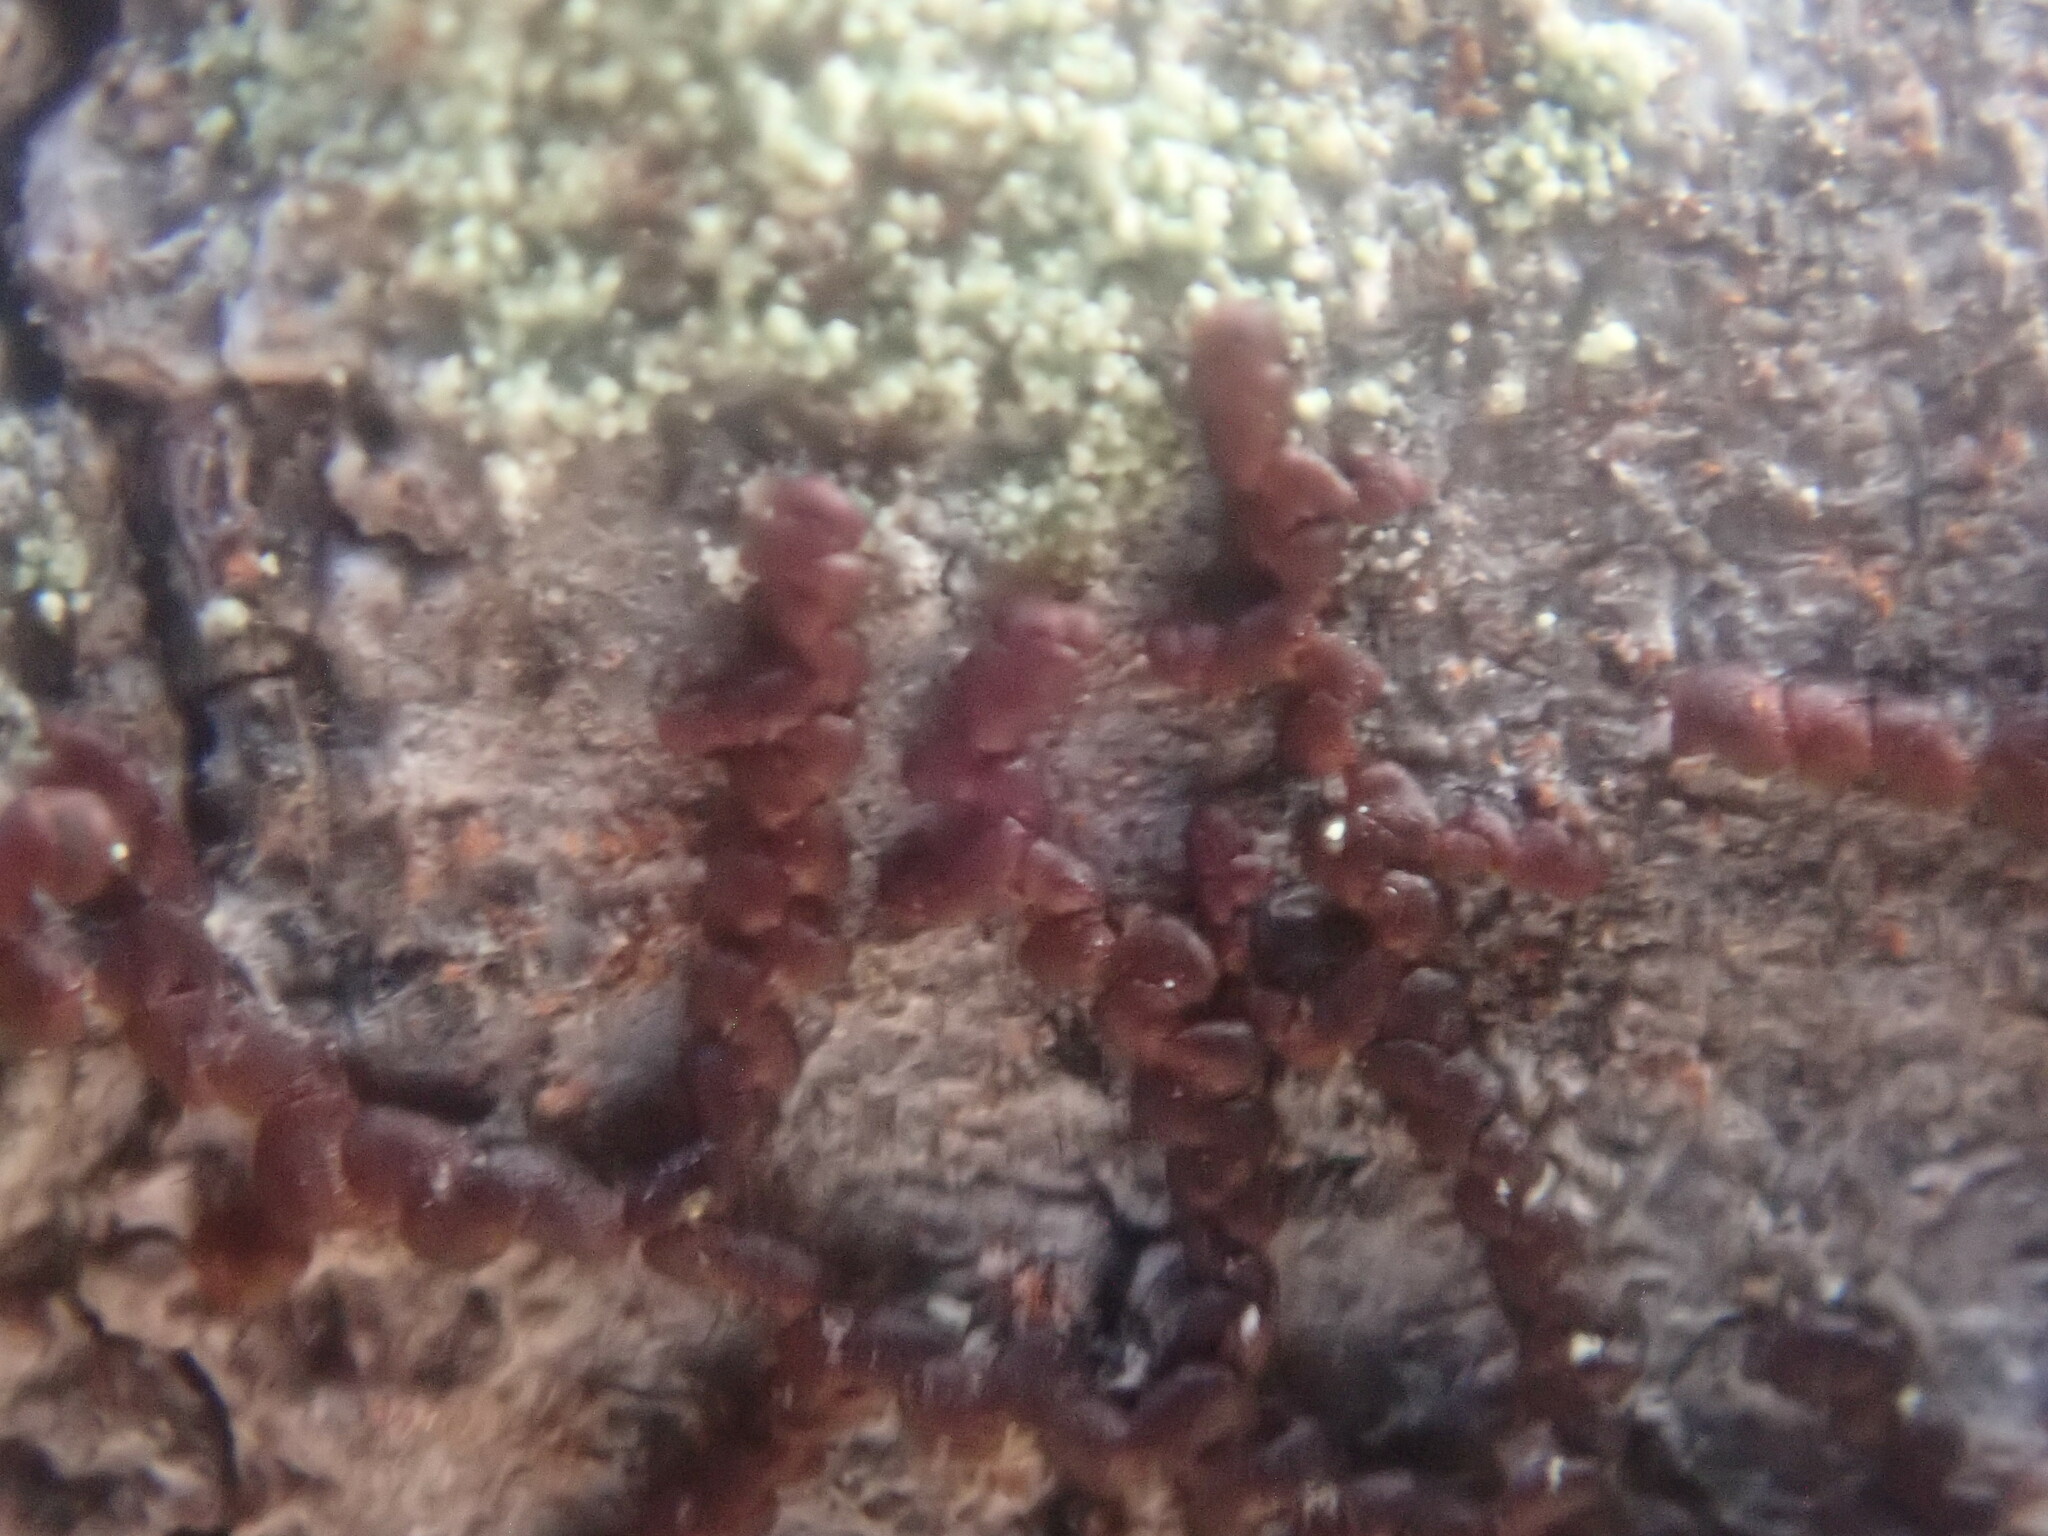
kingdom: Plantae
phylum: Marchantiophyta
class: Jungermanniopsida
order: Porellales
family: Frullaniaceae
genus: Frullania
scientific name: Frullania
